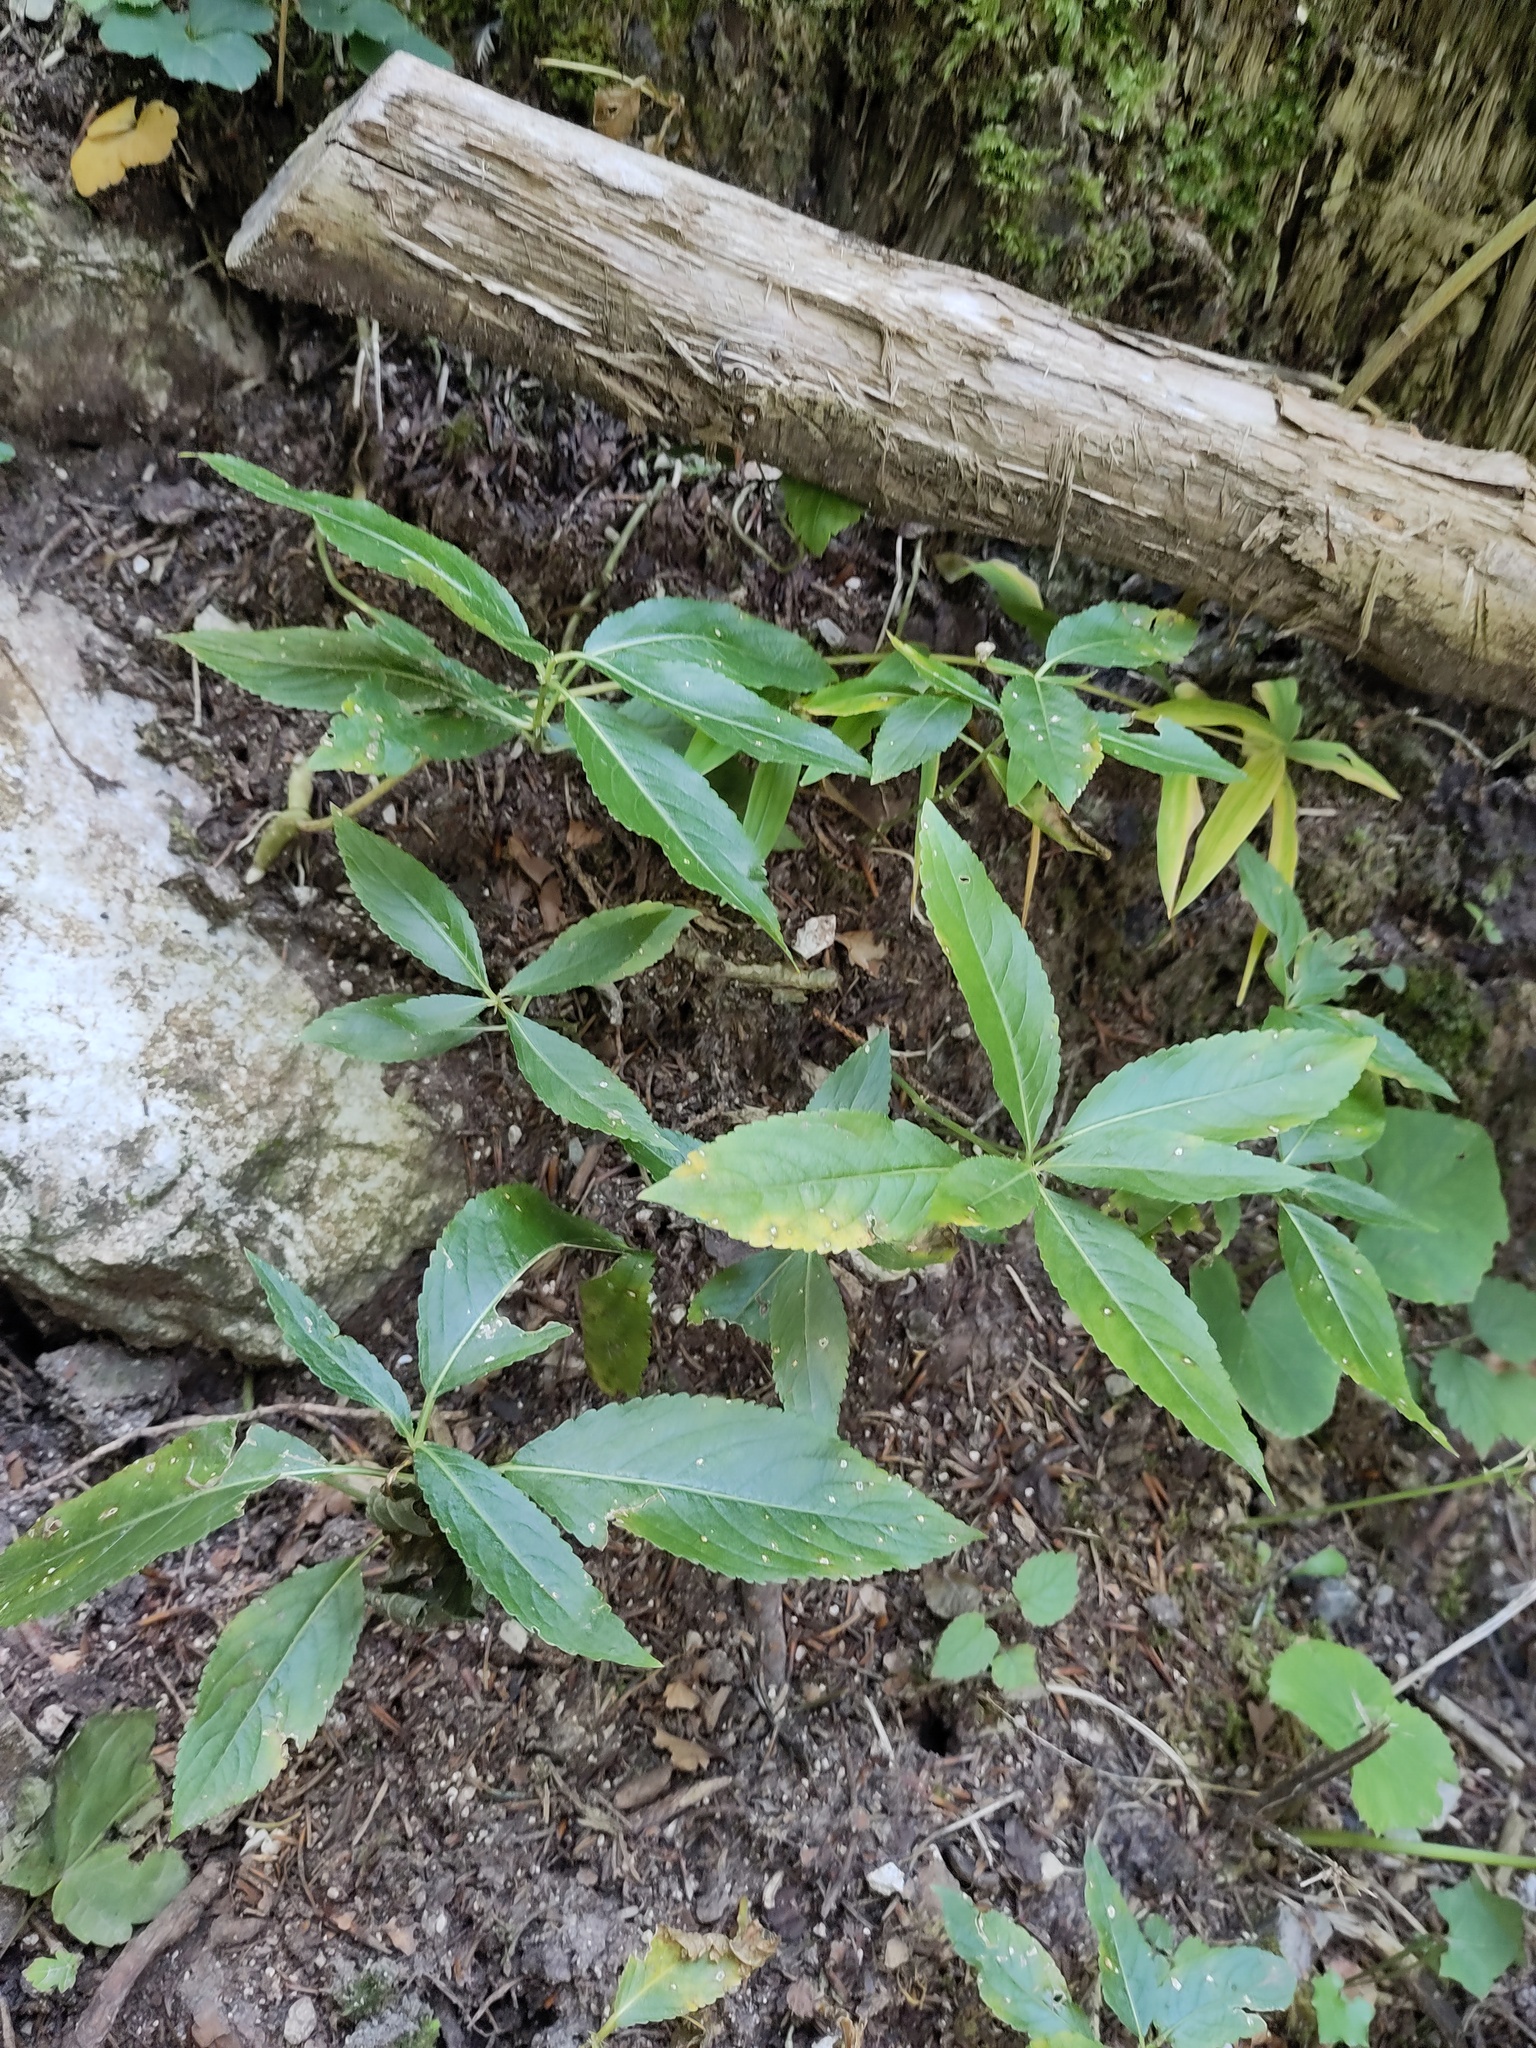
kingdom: Plantae
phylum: Tracheophyta
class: Magnoliopsida
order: Malpighiales
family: Euphorbiaceae
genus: Mercurialis
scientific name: Mercurialis perennis
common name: Dog mercury
